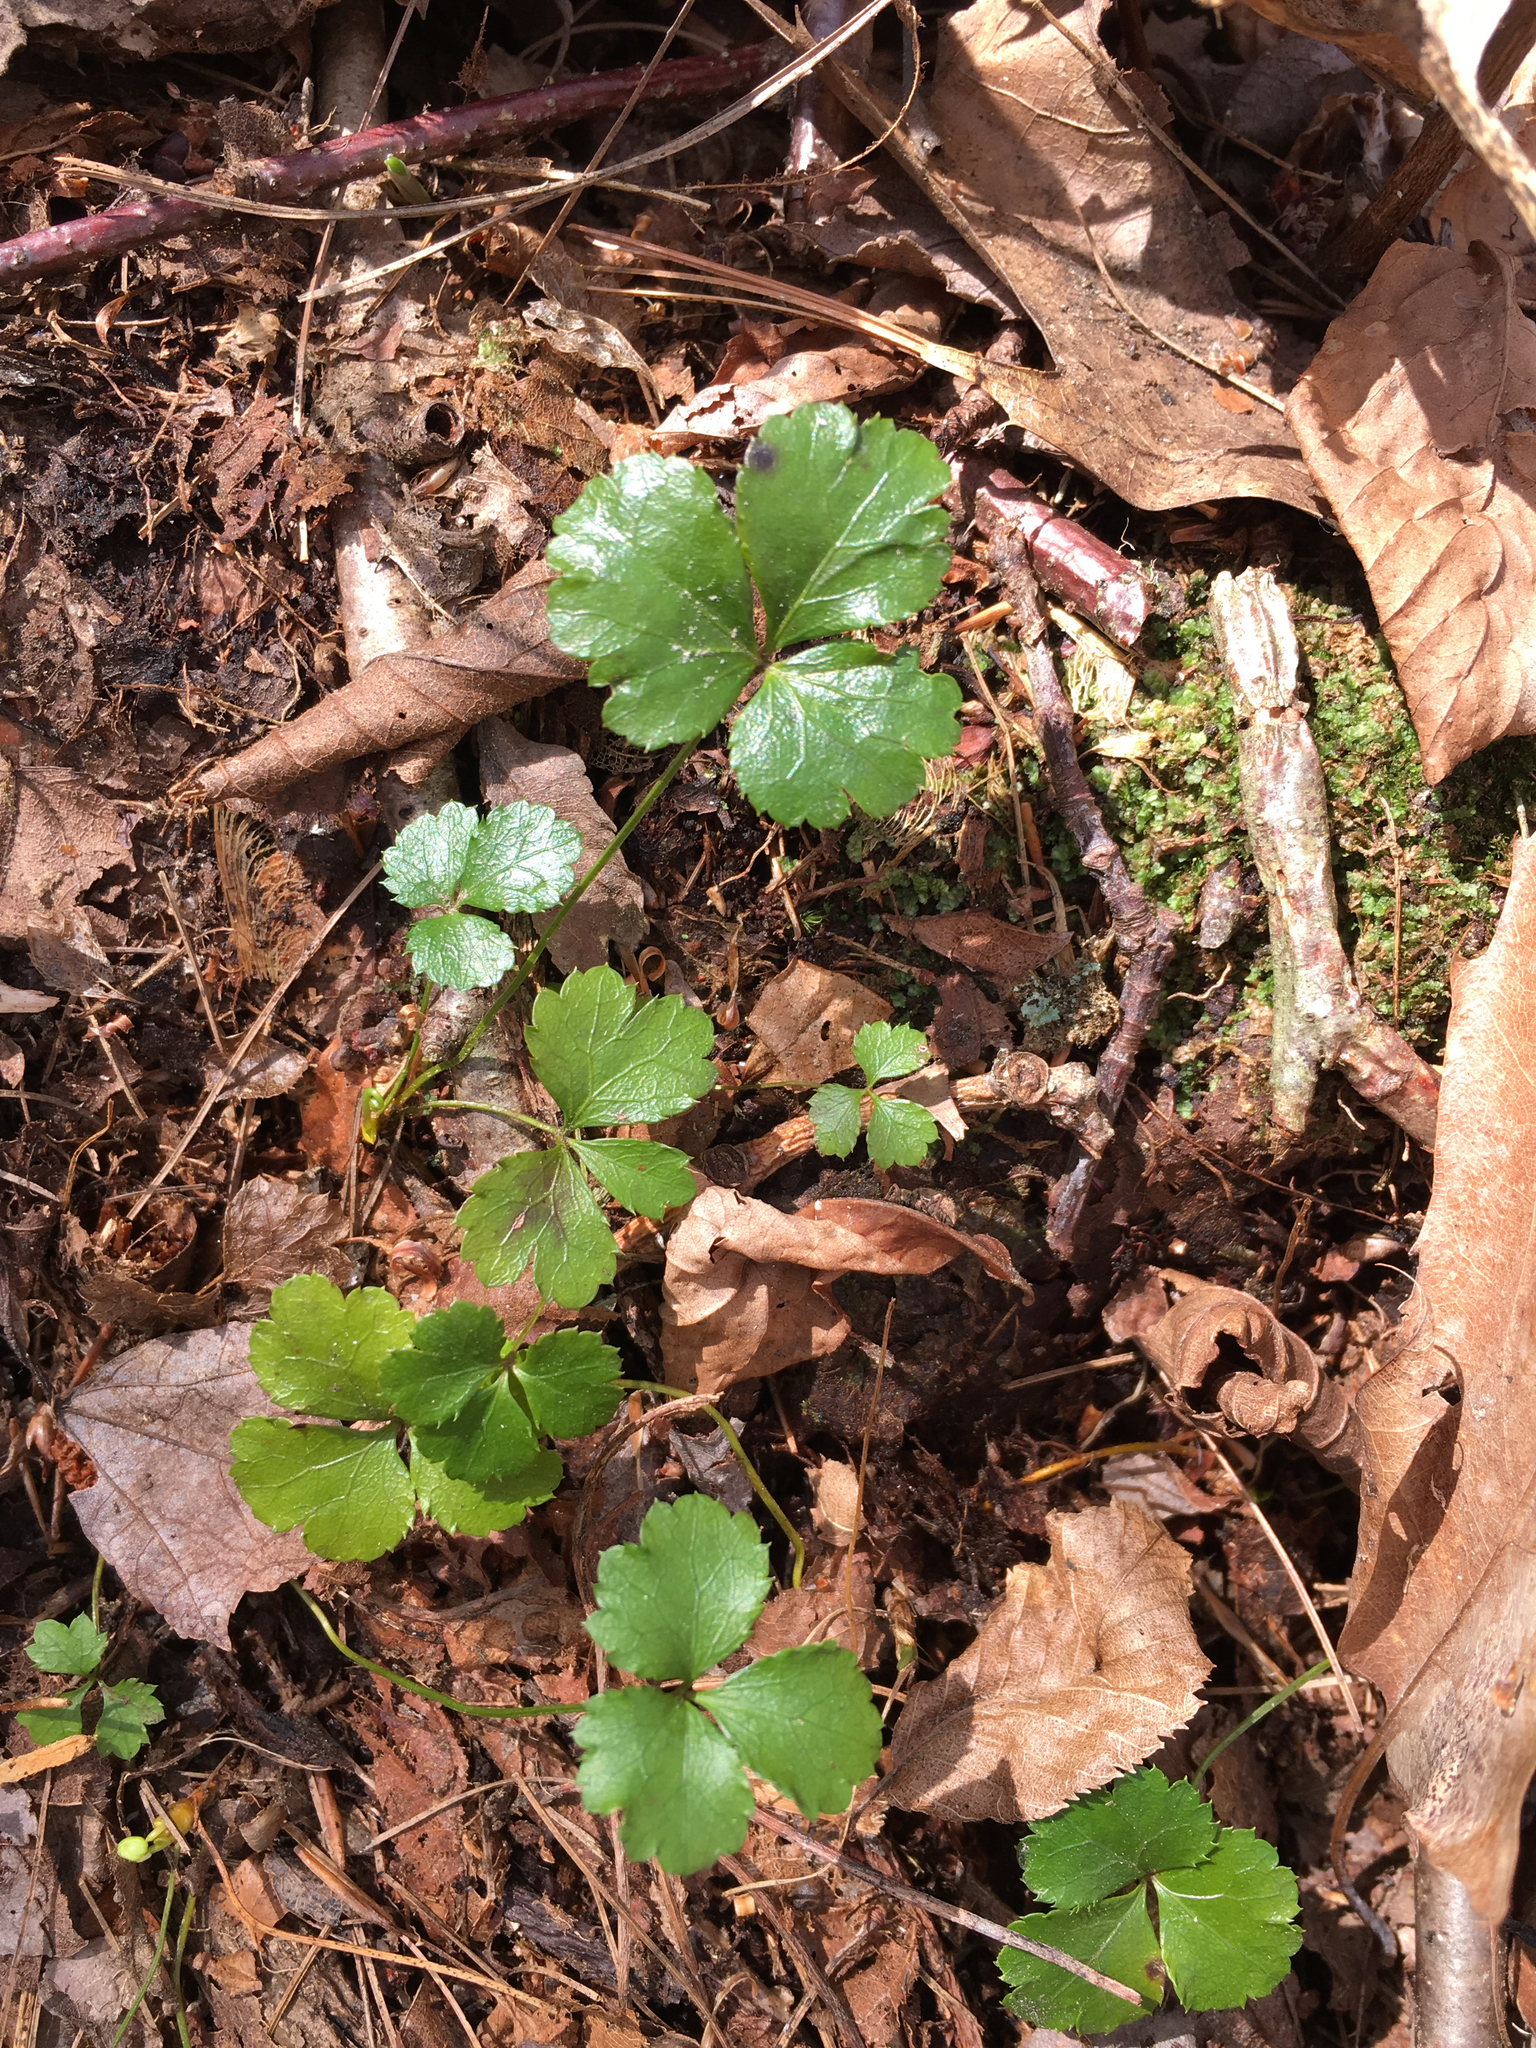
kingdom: Plantae
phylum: Tracheophyta
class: Magnoliopsida
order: Ranunculales
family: Ranunculaceae
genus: Coptis
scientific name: Coptis trifolia
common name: Canker-root
